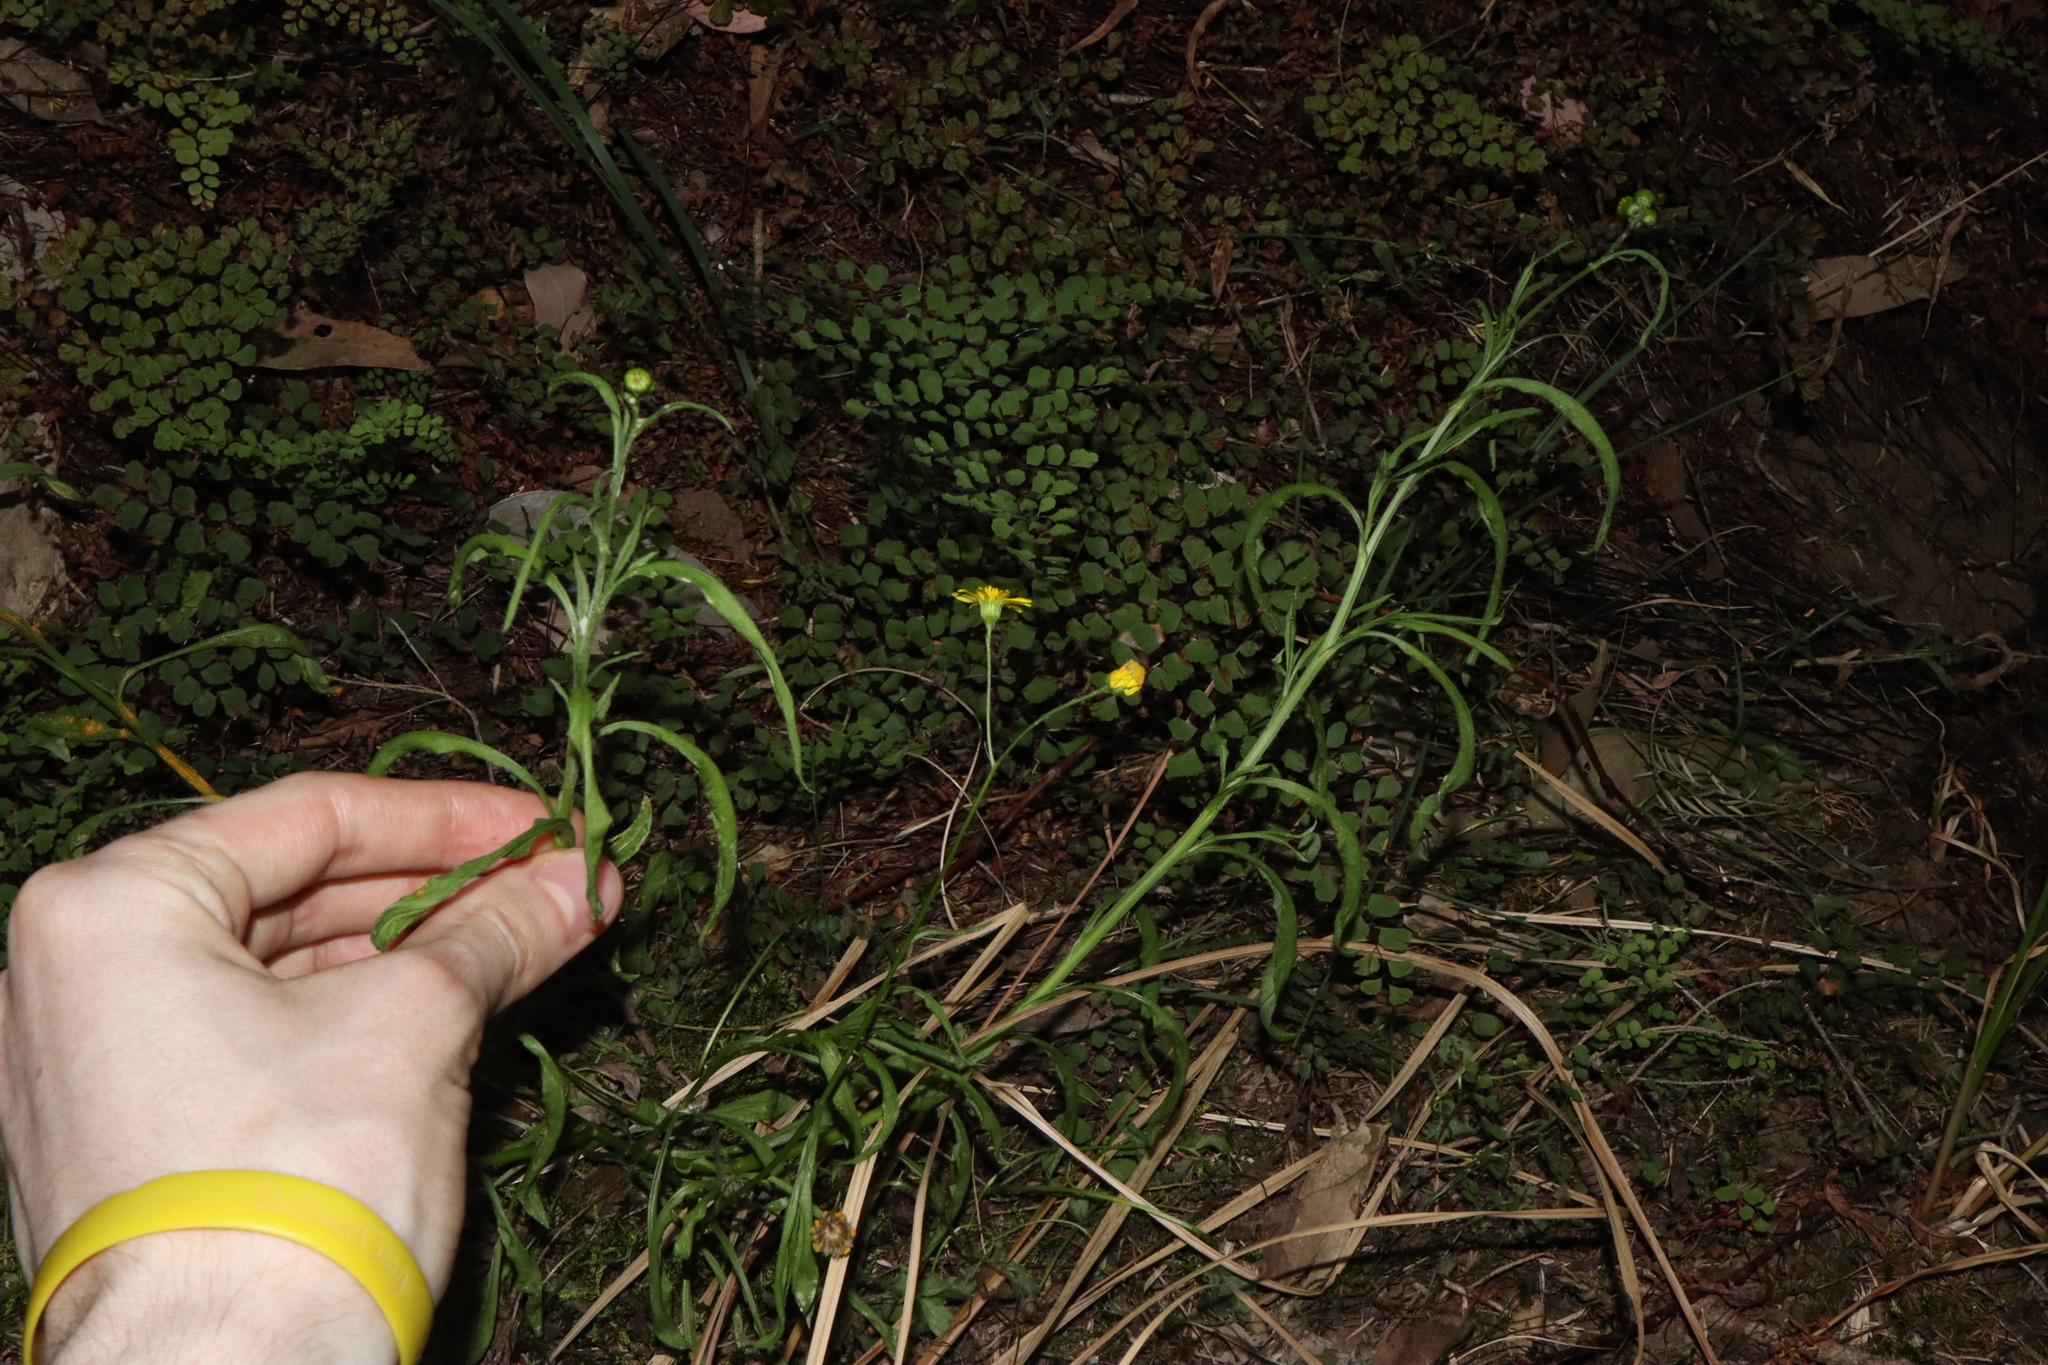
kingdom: Plantae
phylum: Tracheophyta
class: Magnoliopsida
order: Asterales
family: Asteraceae
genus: Senecio
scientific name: Senecio madagascariensis
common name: Madagascar ragwort
